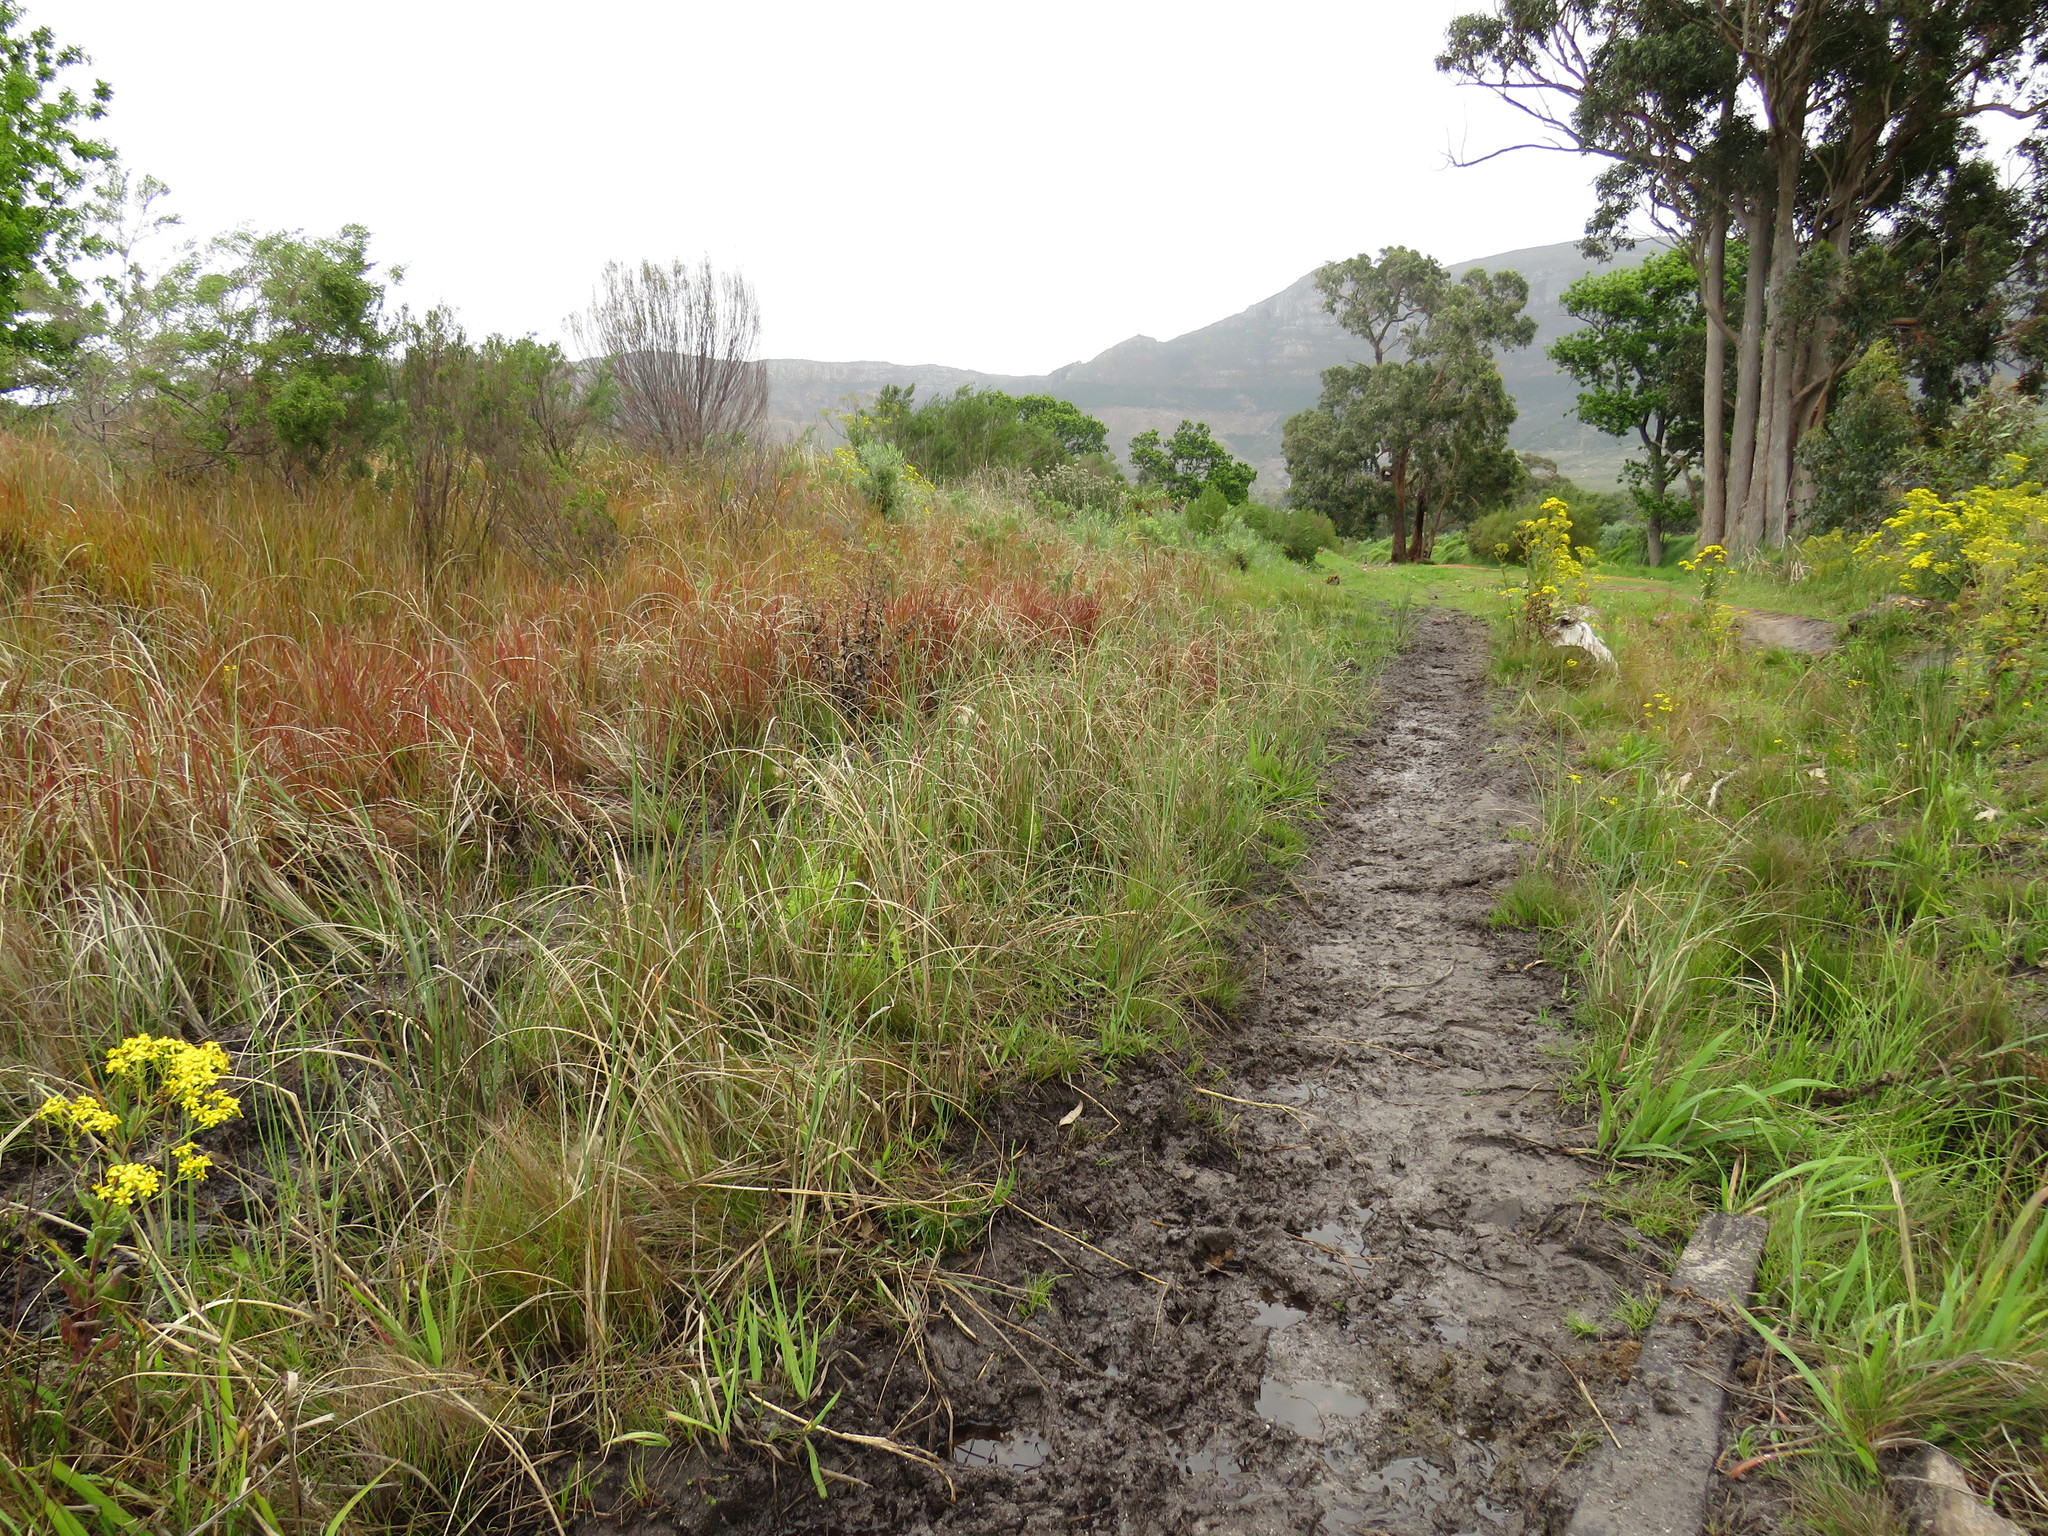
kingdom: Plantae
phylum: Tracheophyta
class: Polypodiopsida
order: Polypodiales
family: Thelypteridaceae
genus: Thelypteris
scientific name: Thelypteris confluens
